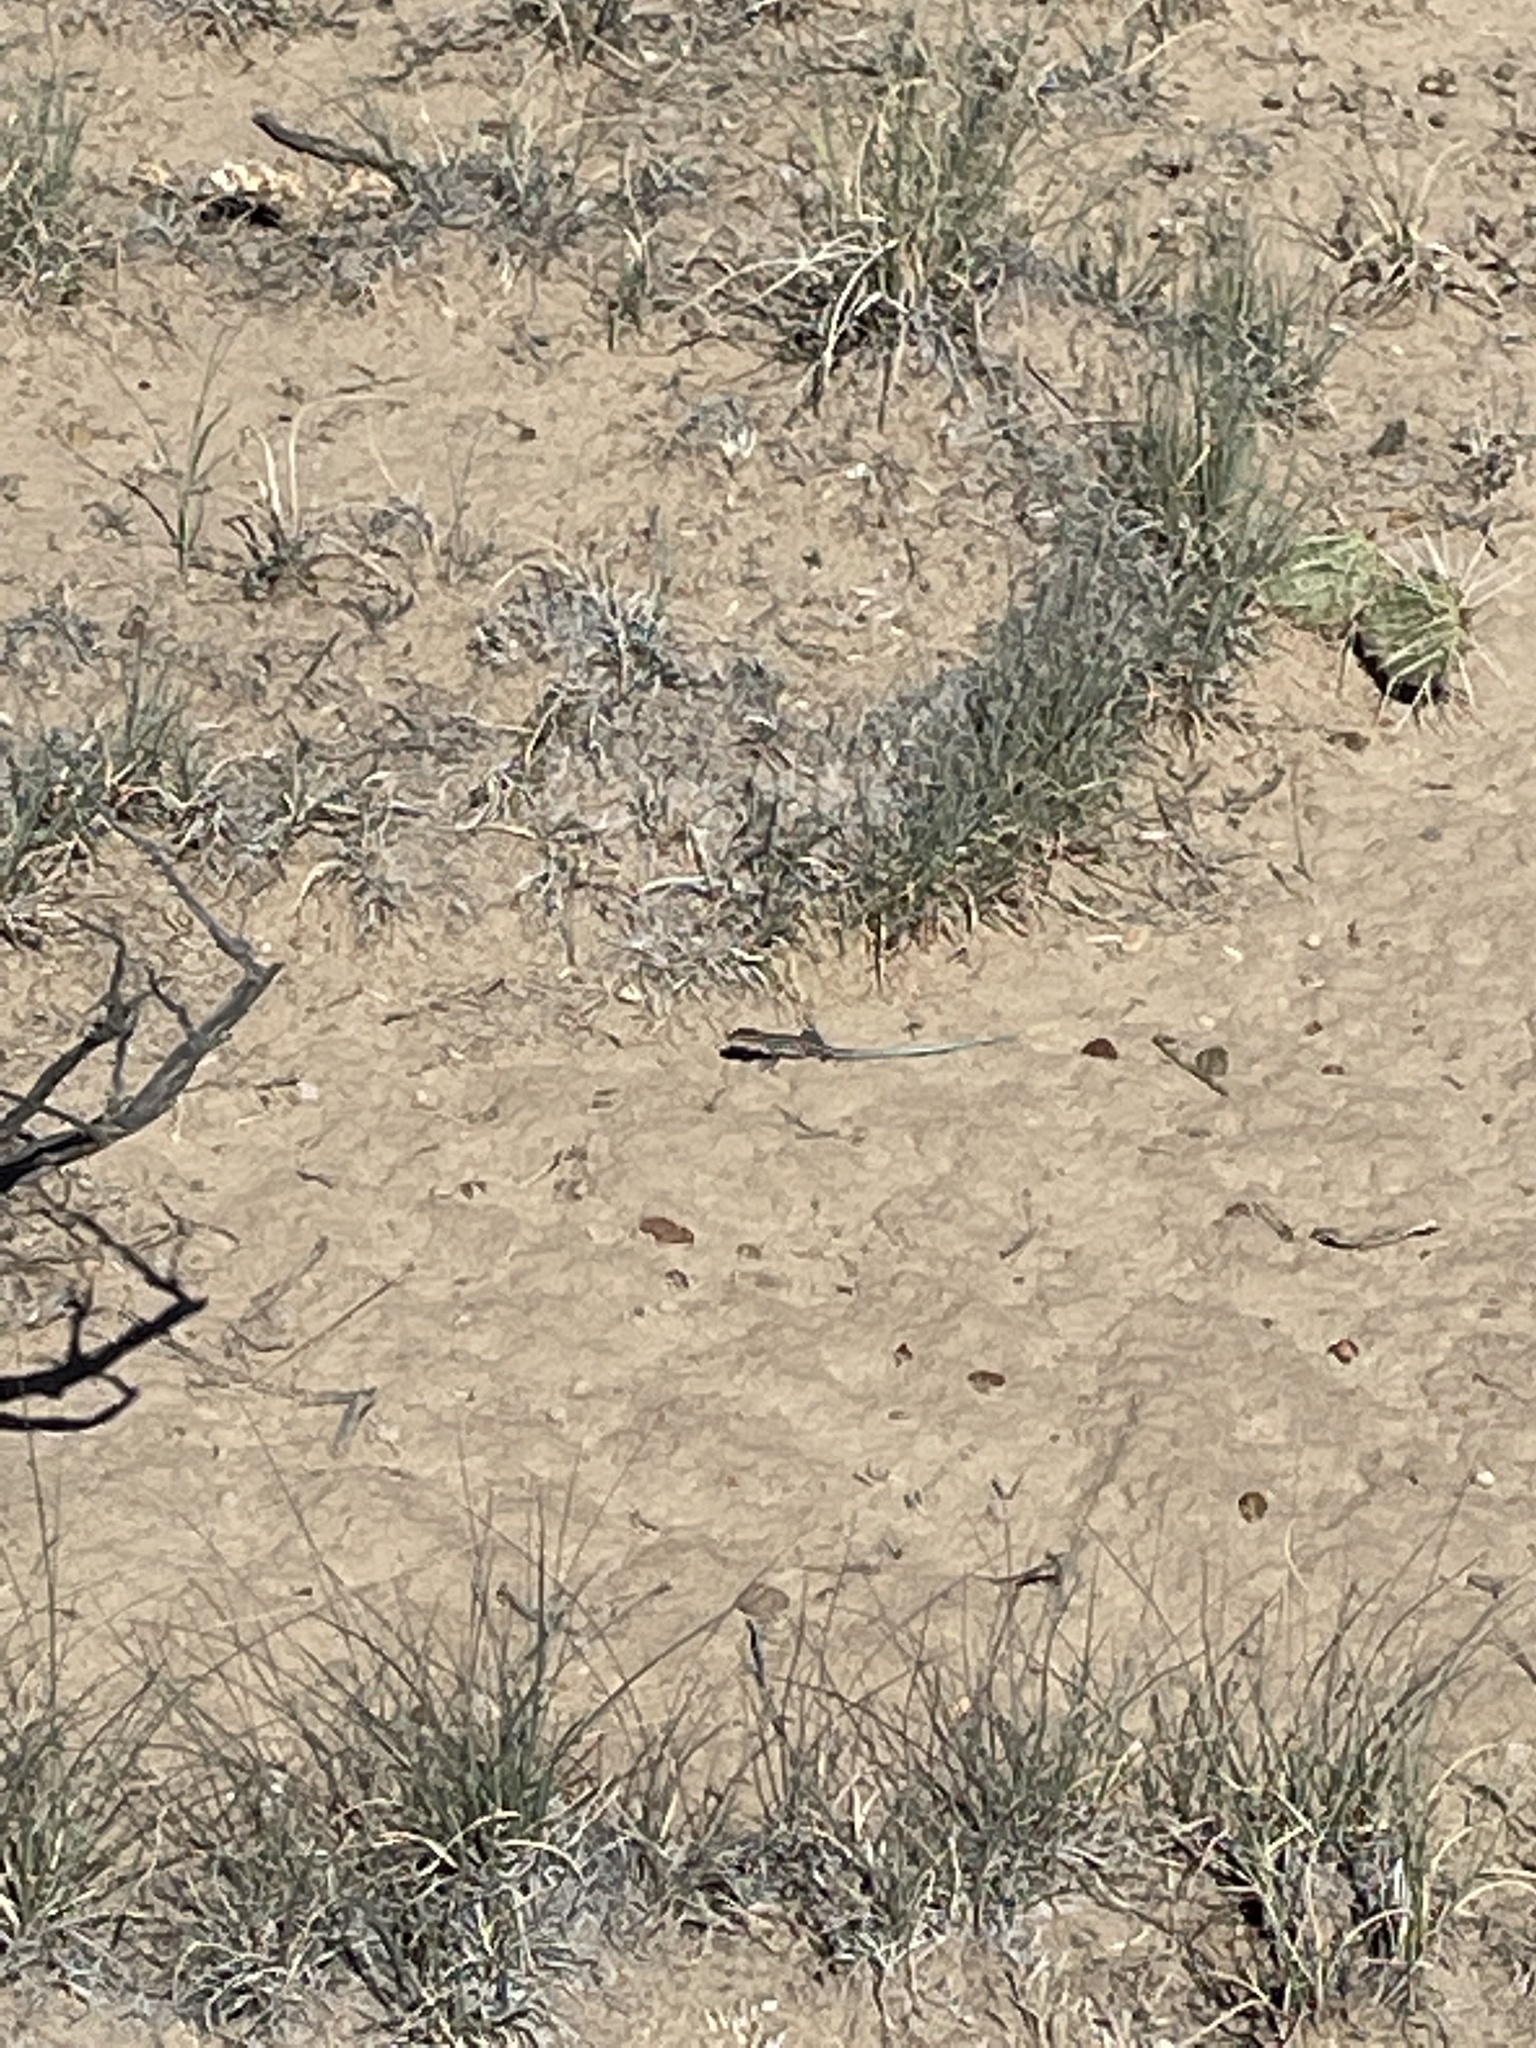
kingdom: Animalia
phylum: Chordata
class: Squamata
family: Teiidae
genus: Aspidoscelis
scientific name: Aspidoscelis
